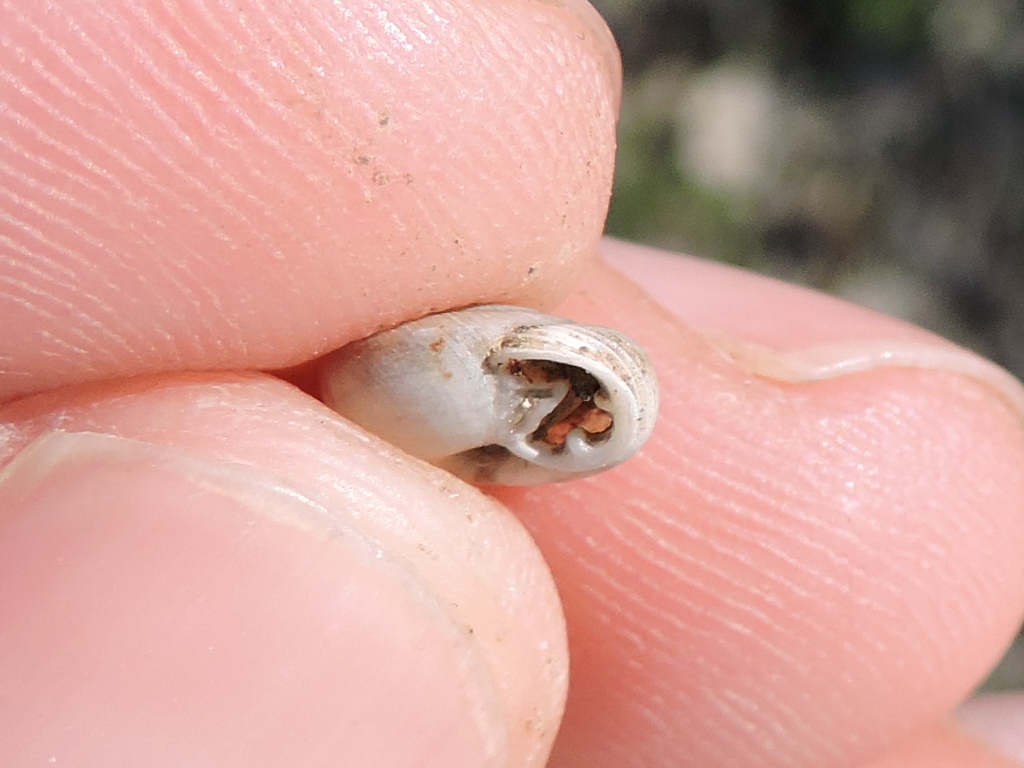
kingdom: Animalia
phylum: Mollusca
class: Gastropoda
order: Stylommatophora
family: Polygyridae
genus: Linisa
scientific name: Linisa texasiana
